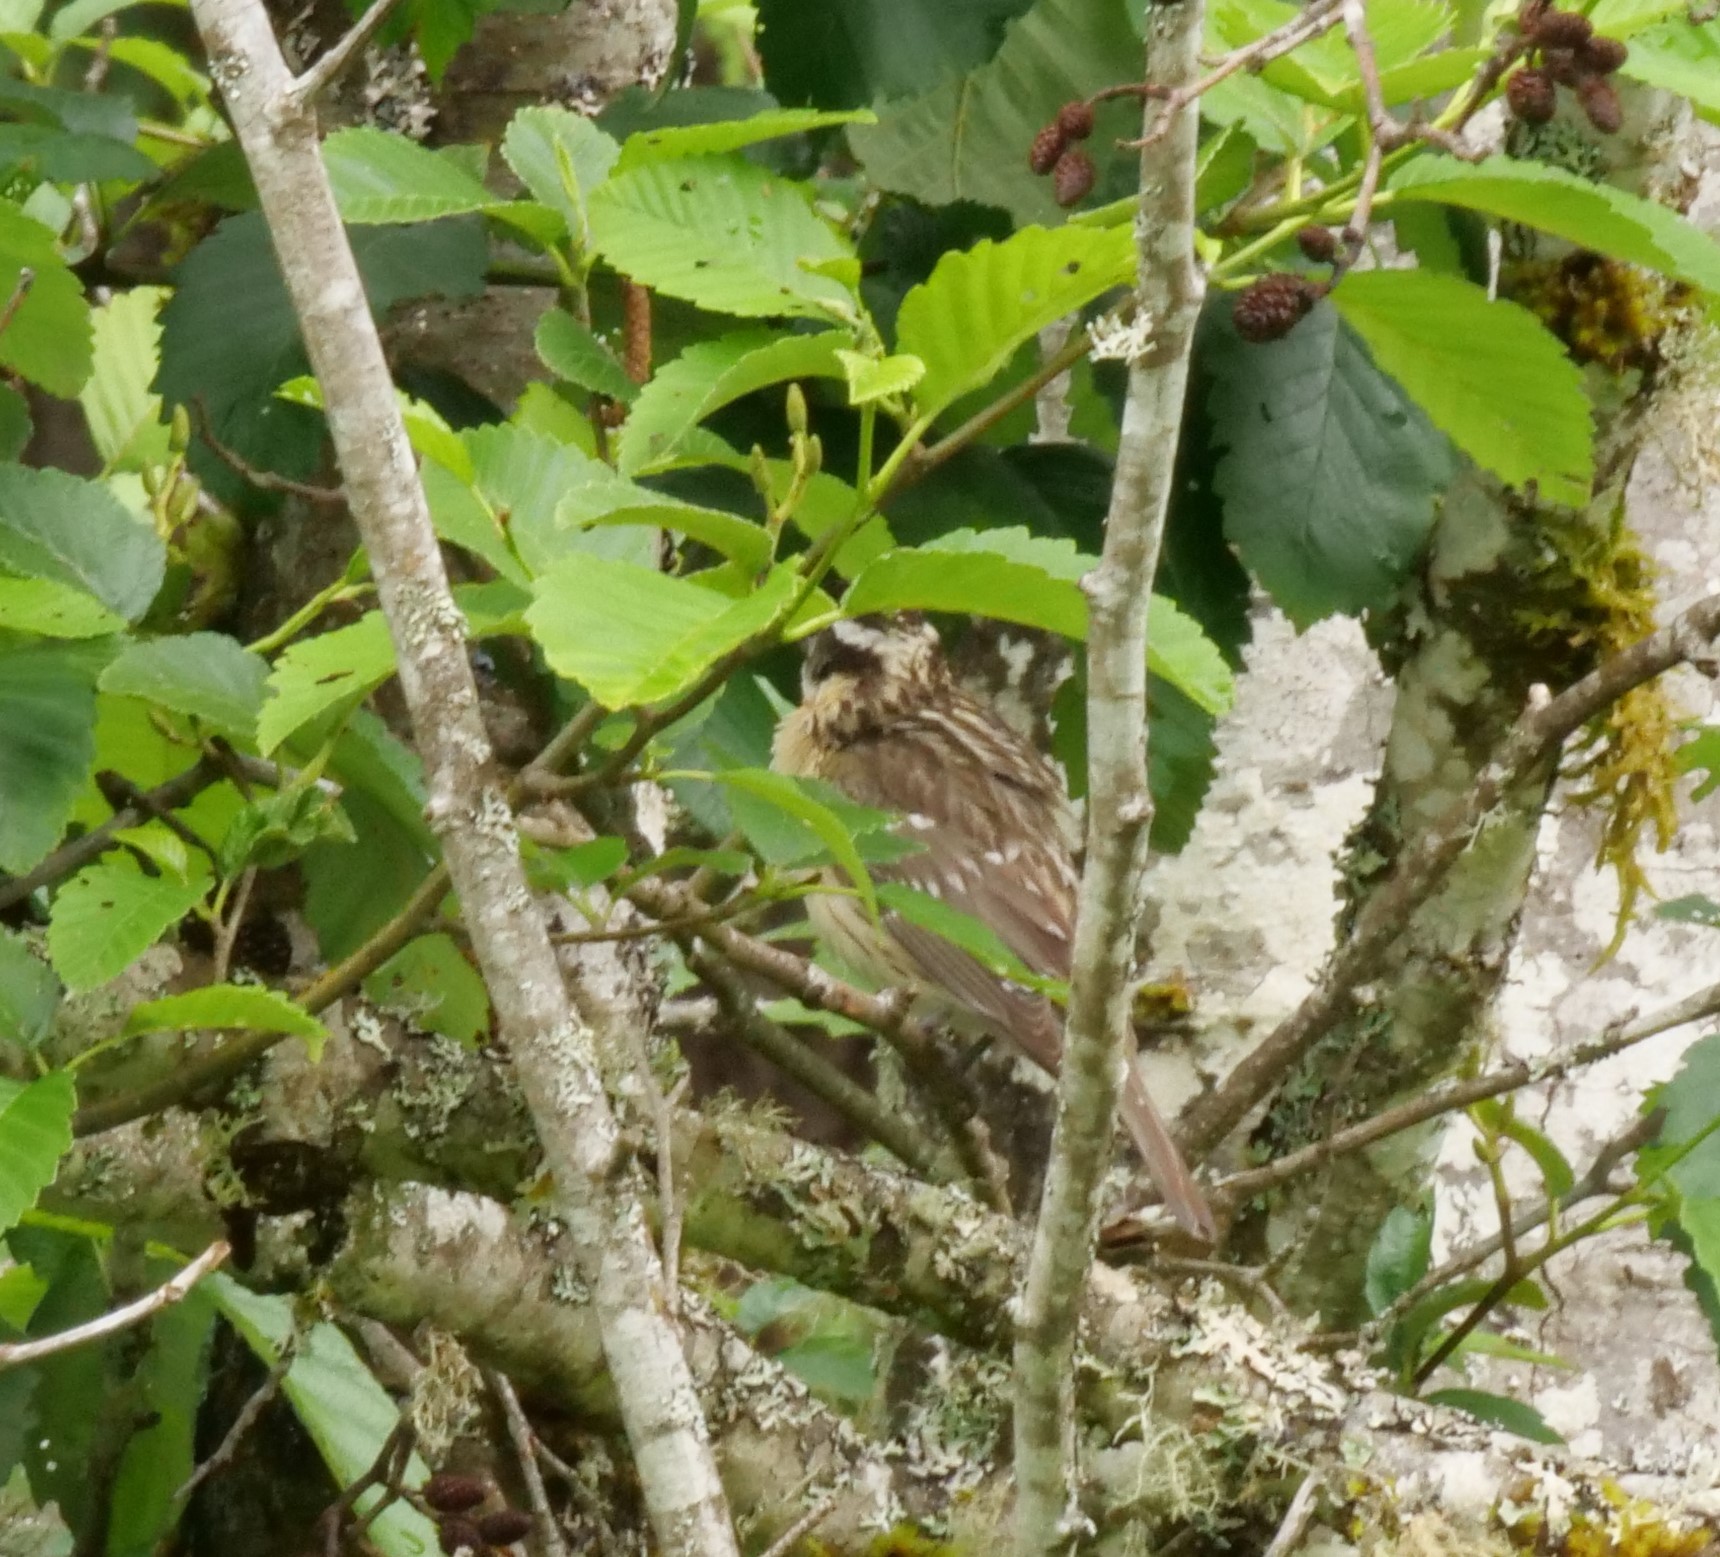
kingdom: Animalia
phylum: Chordata
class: Aves
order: Passeriformes
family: Cardinalidae
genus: Pheucticus
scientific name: Pheucticus melanocephalus
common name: Black-headed grosbeak
